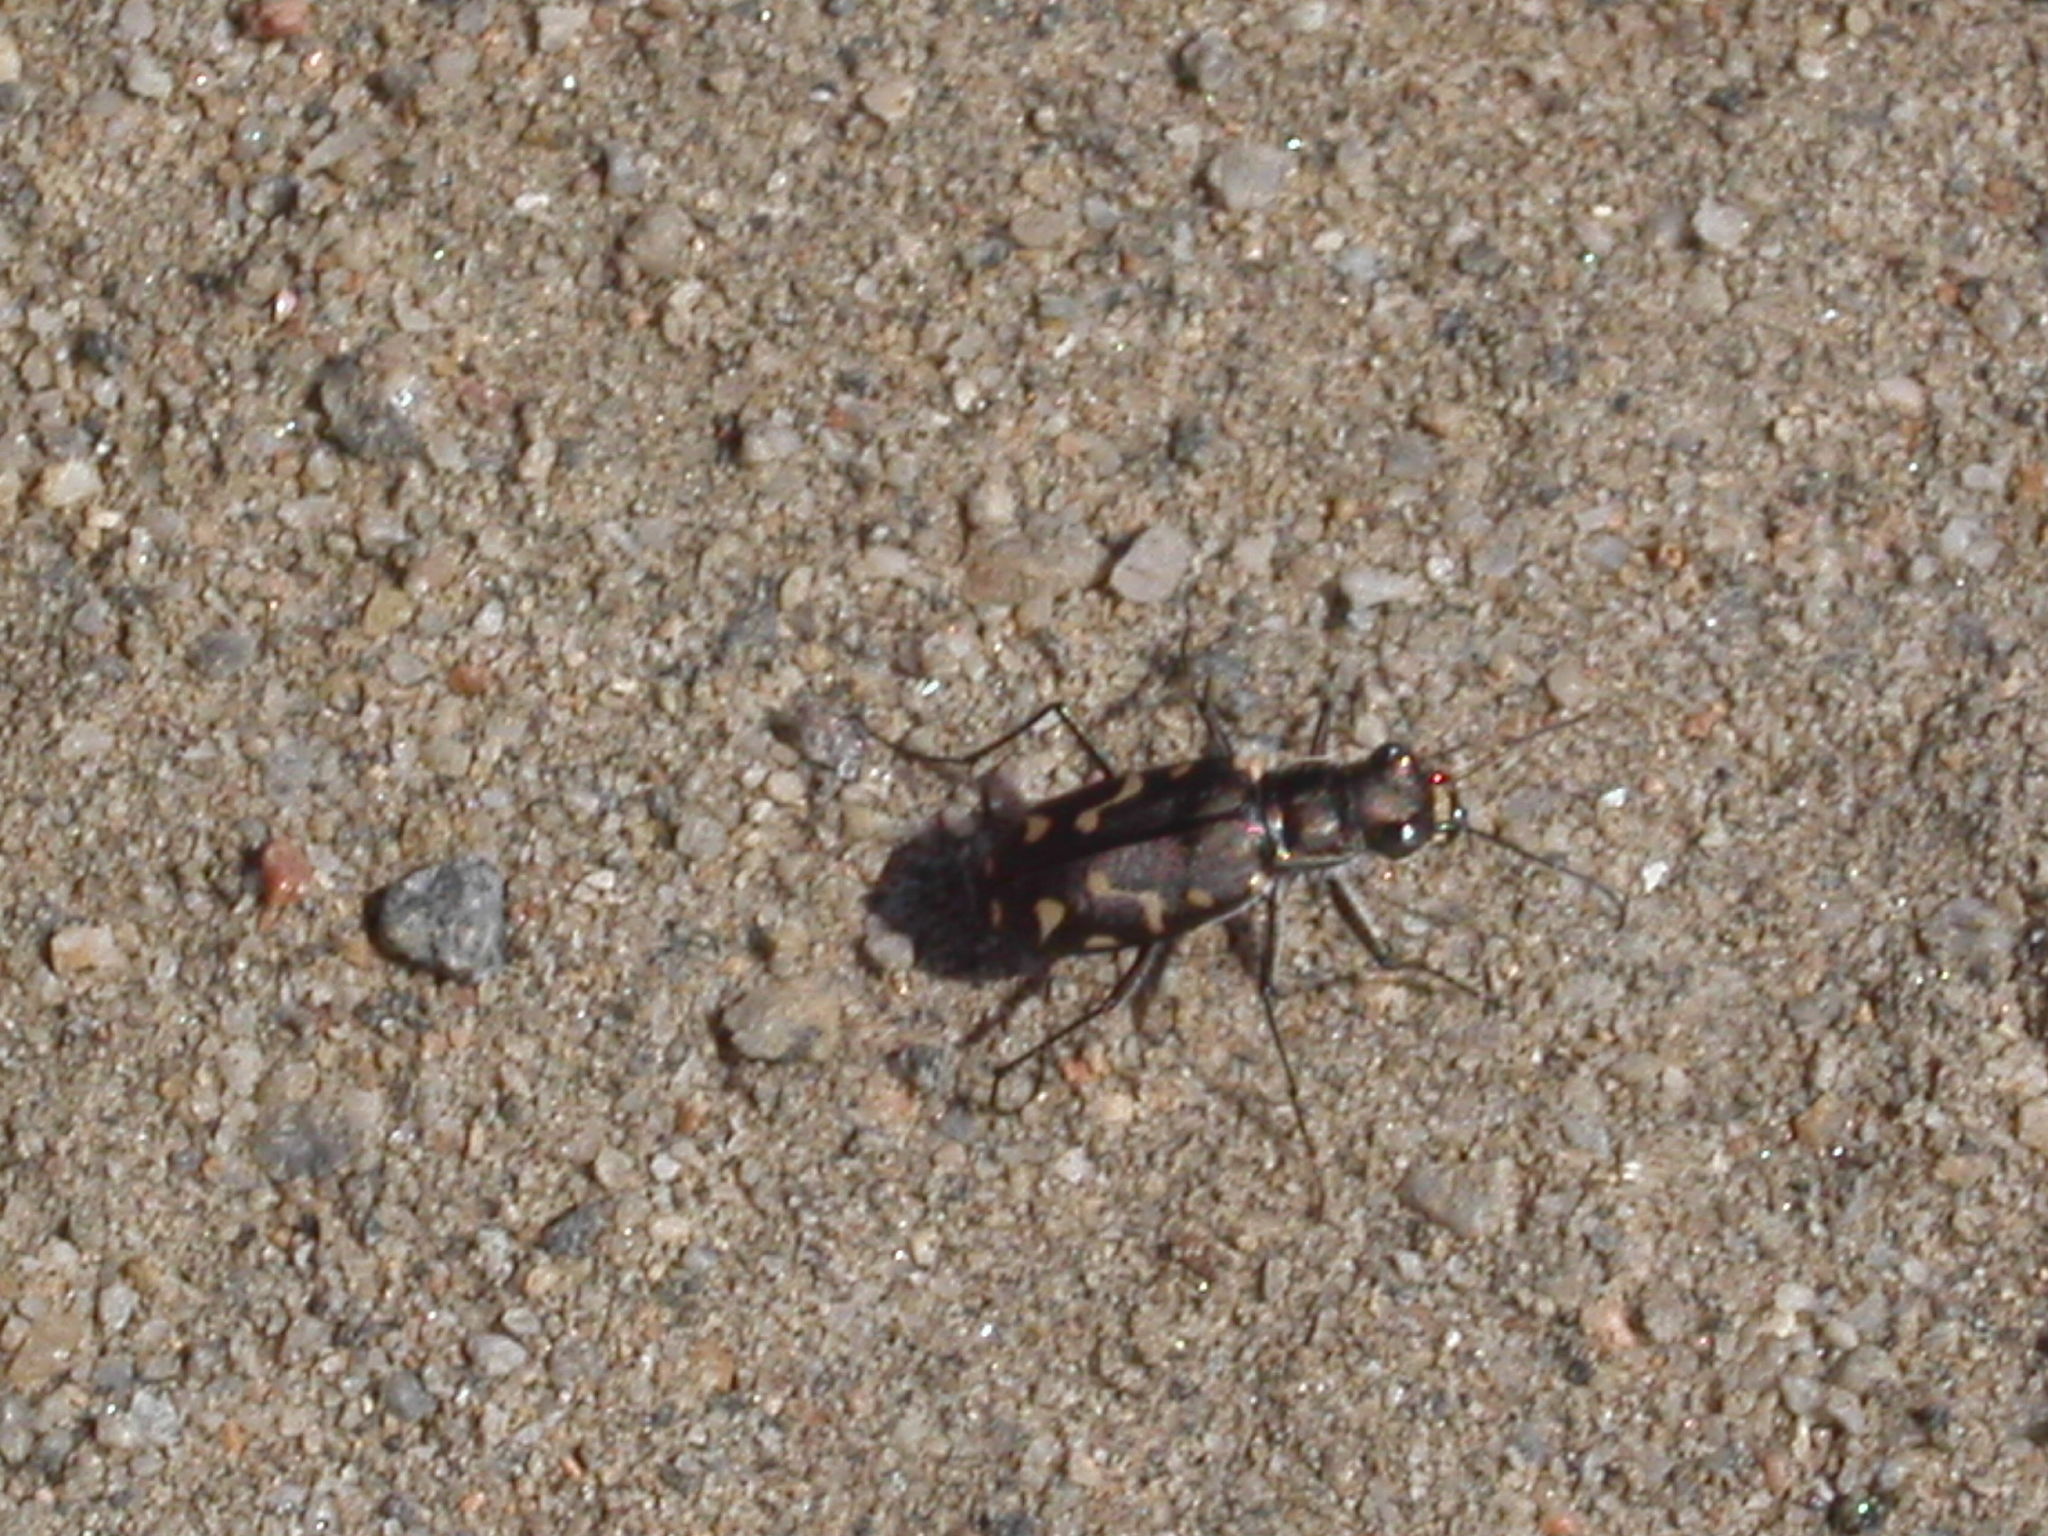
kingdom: Animalia
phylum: Arthropoda
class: Insecta
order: Coleoptera
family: Carabidae
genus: Cicindela
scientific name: Cicindela hemorrhagica
